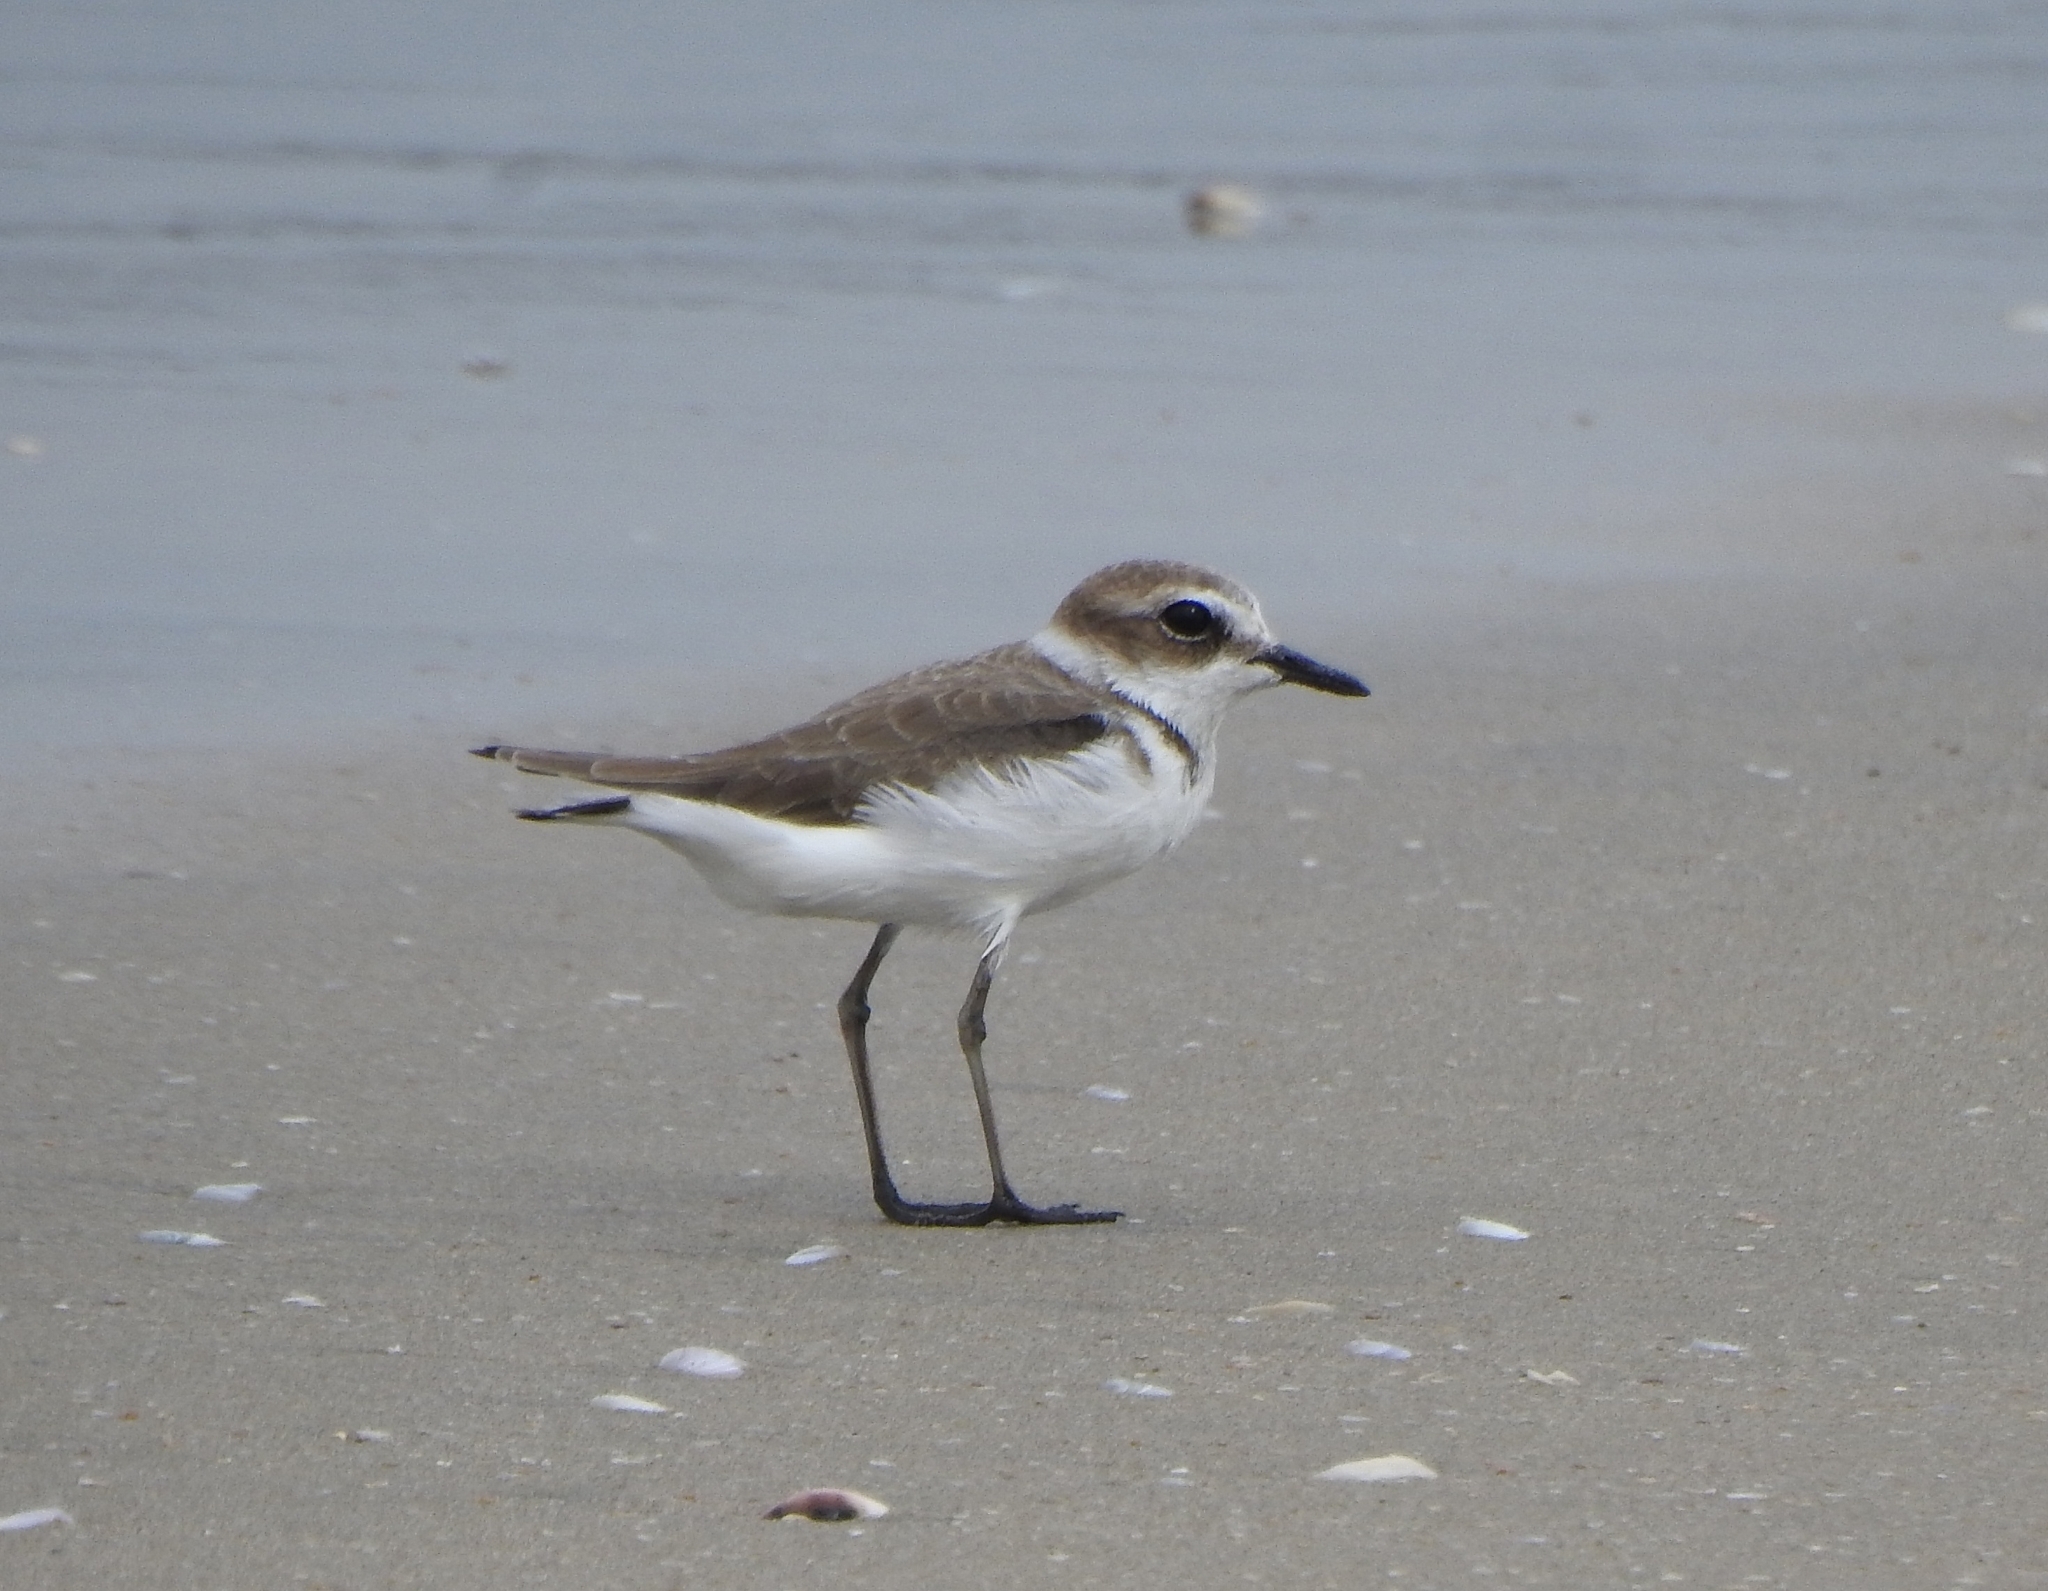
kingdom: Animalia
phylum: Chordata
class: Aves
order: Charadriiformes
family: Charadriidae
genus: Charadrius
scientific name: Charadrius alexandrinus
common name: Kentish plover
